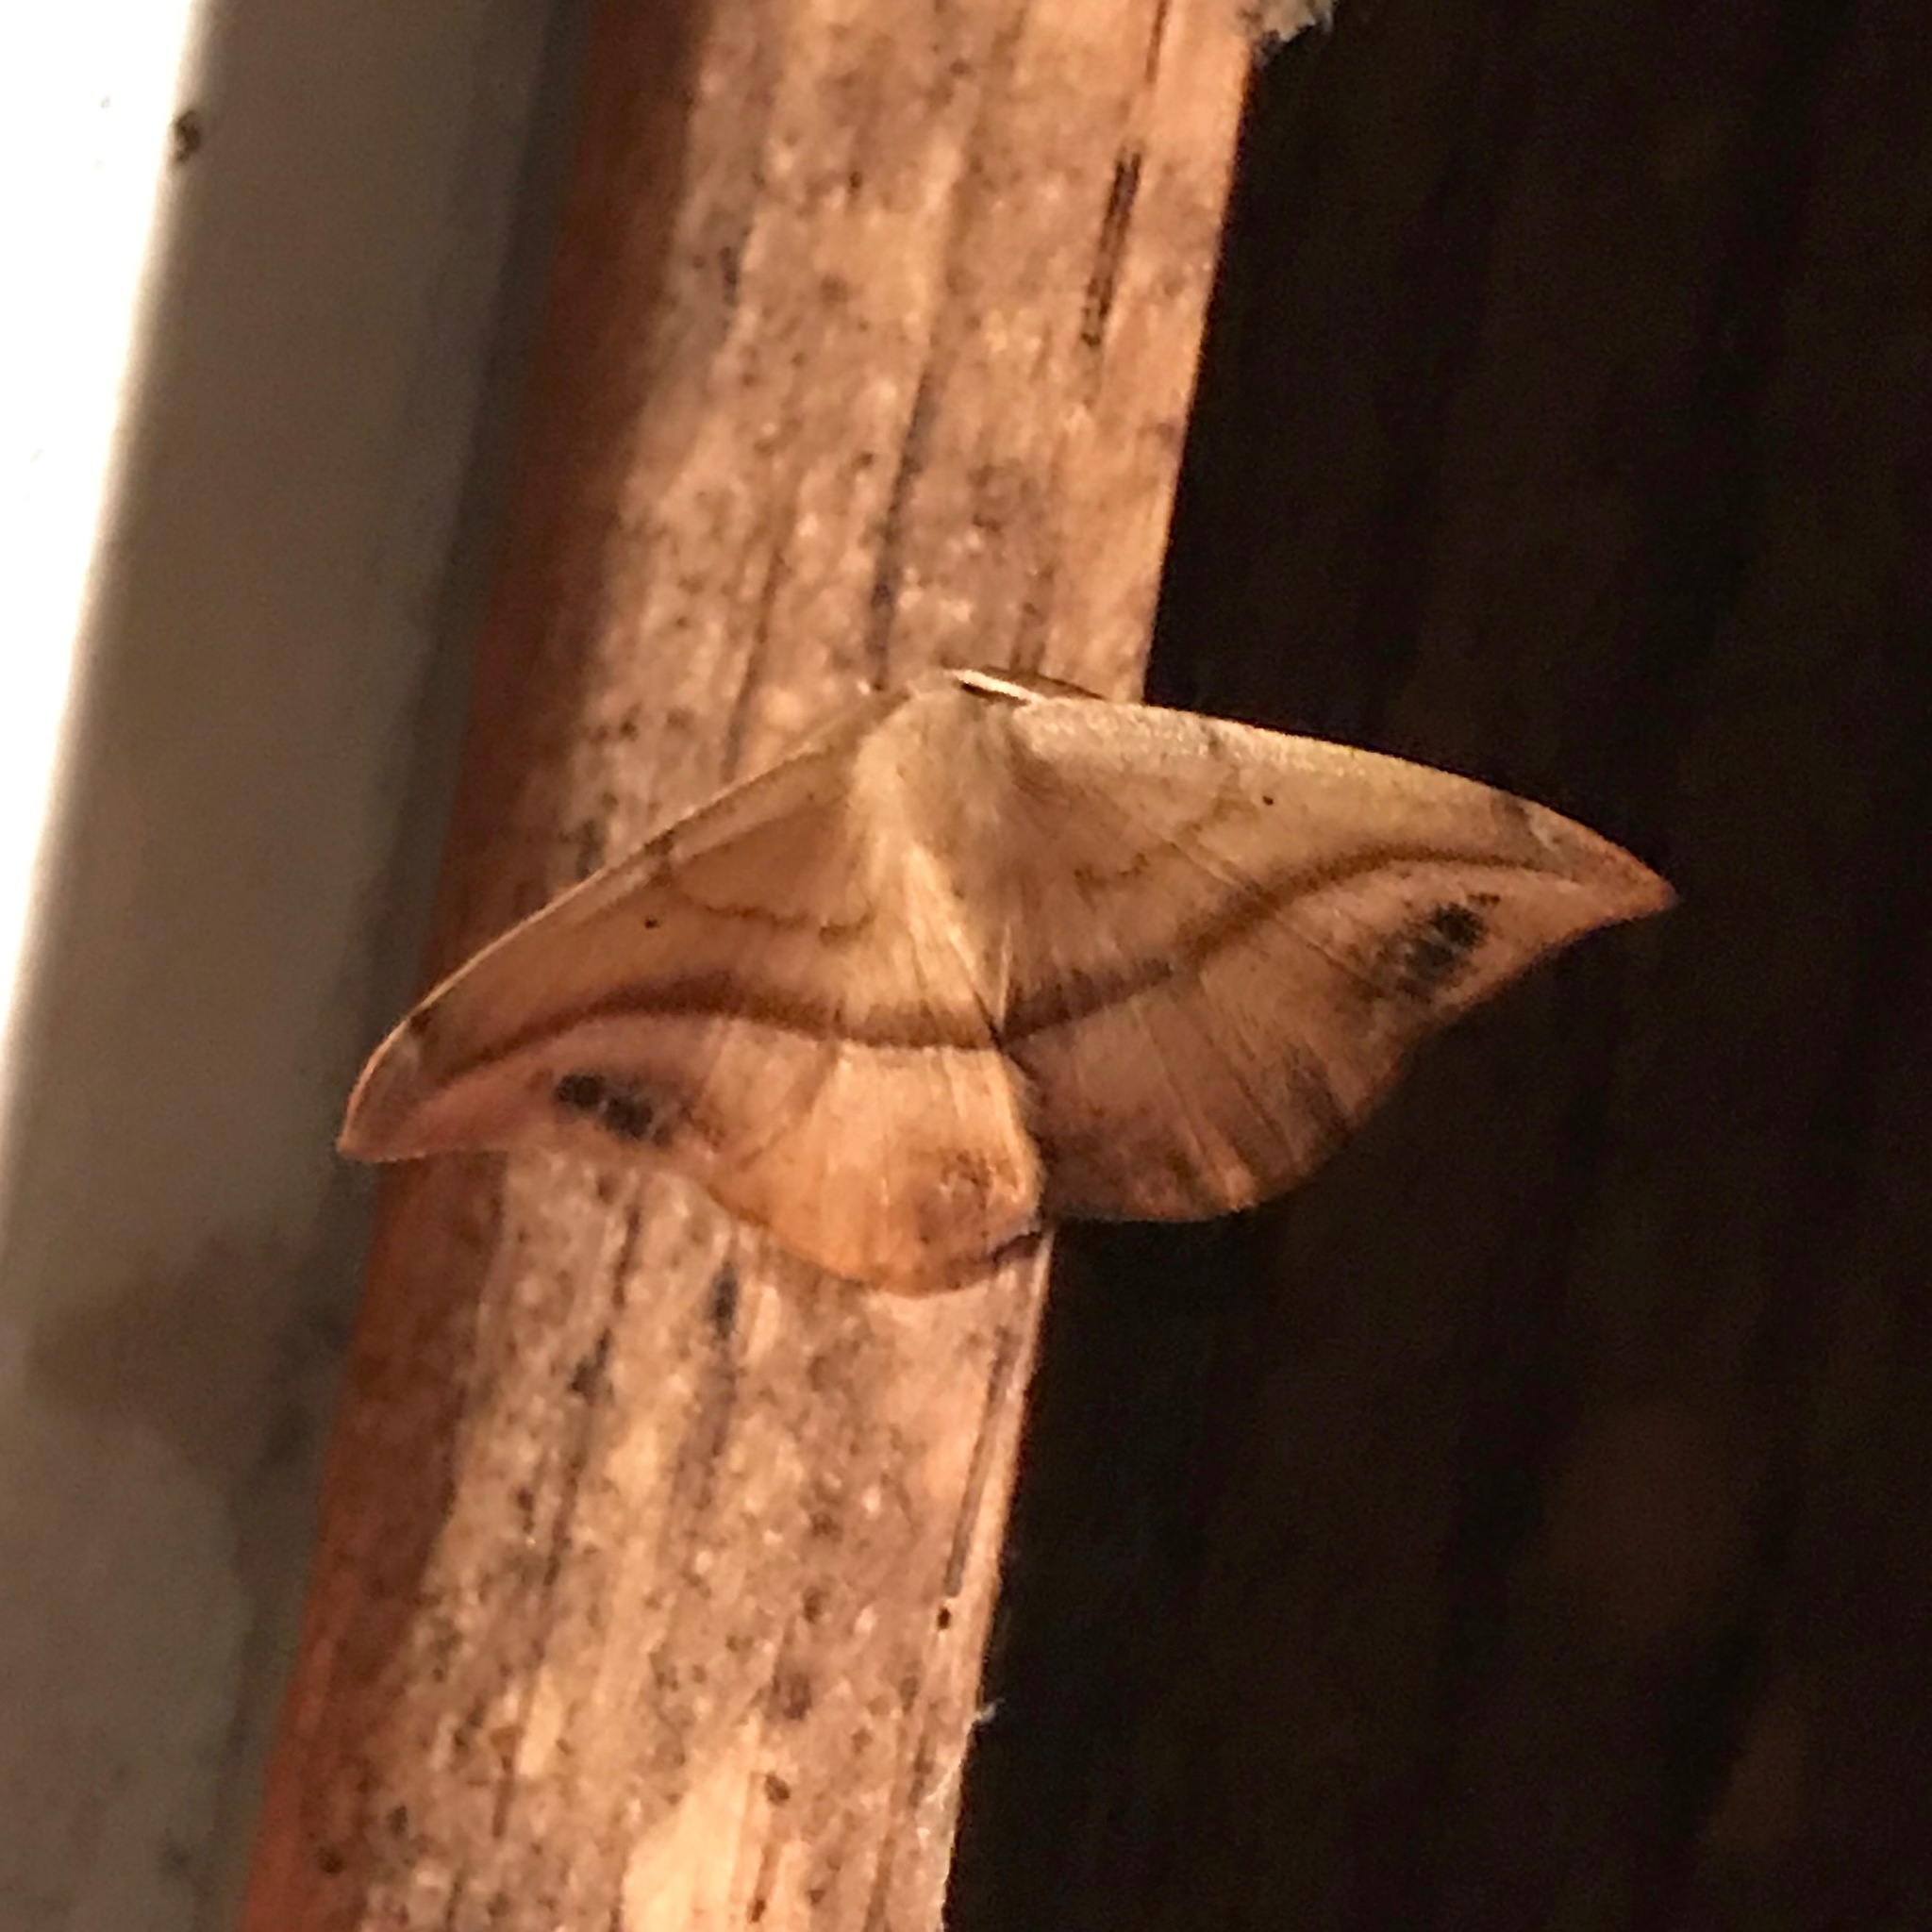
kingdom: Animalia
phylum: Arthropoda
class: Insecta
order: Lepidoptera
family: Geometridae
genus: Patalene
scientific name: Patalene olyzonaria
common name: Juniper geometer moth
